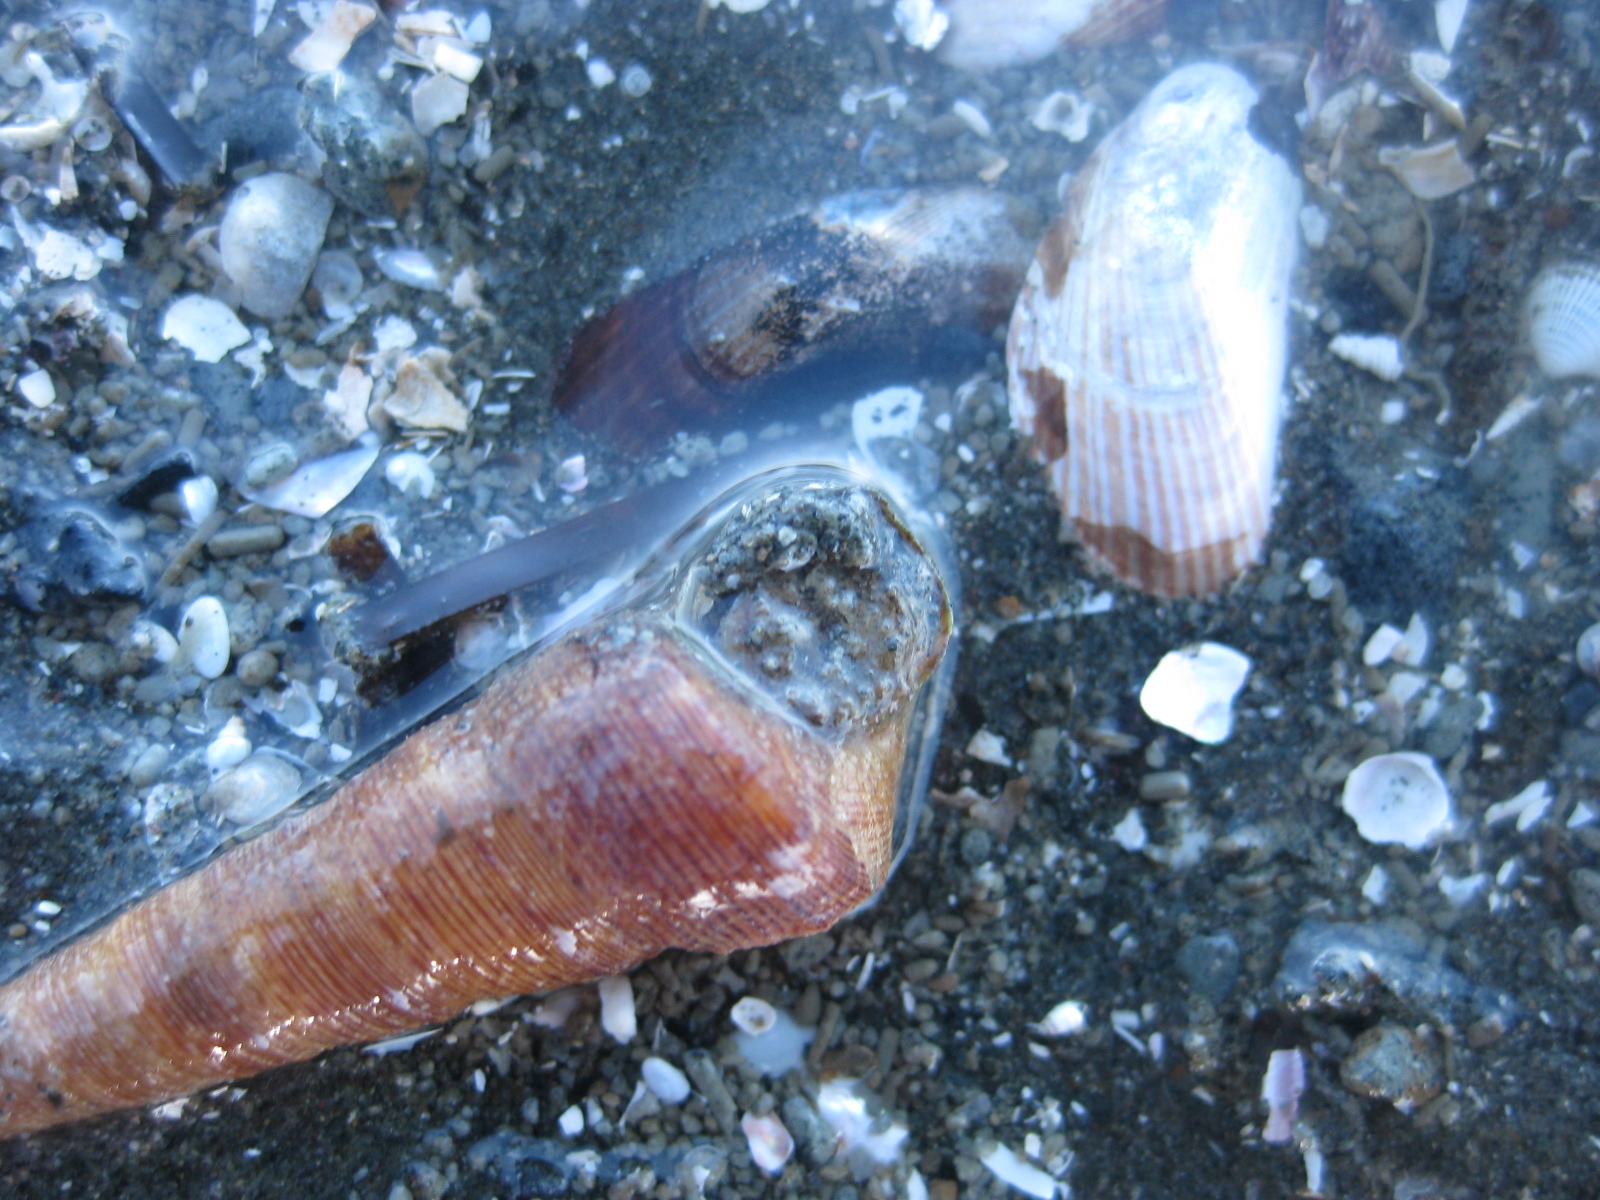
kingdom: Animalia
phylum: Mollusca
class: Gastropoda
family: Turritellidae
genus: Maoricolpus
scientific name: Maoricolpus roseus
